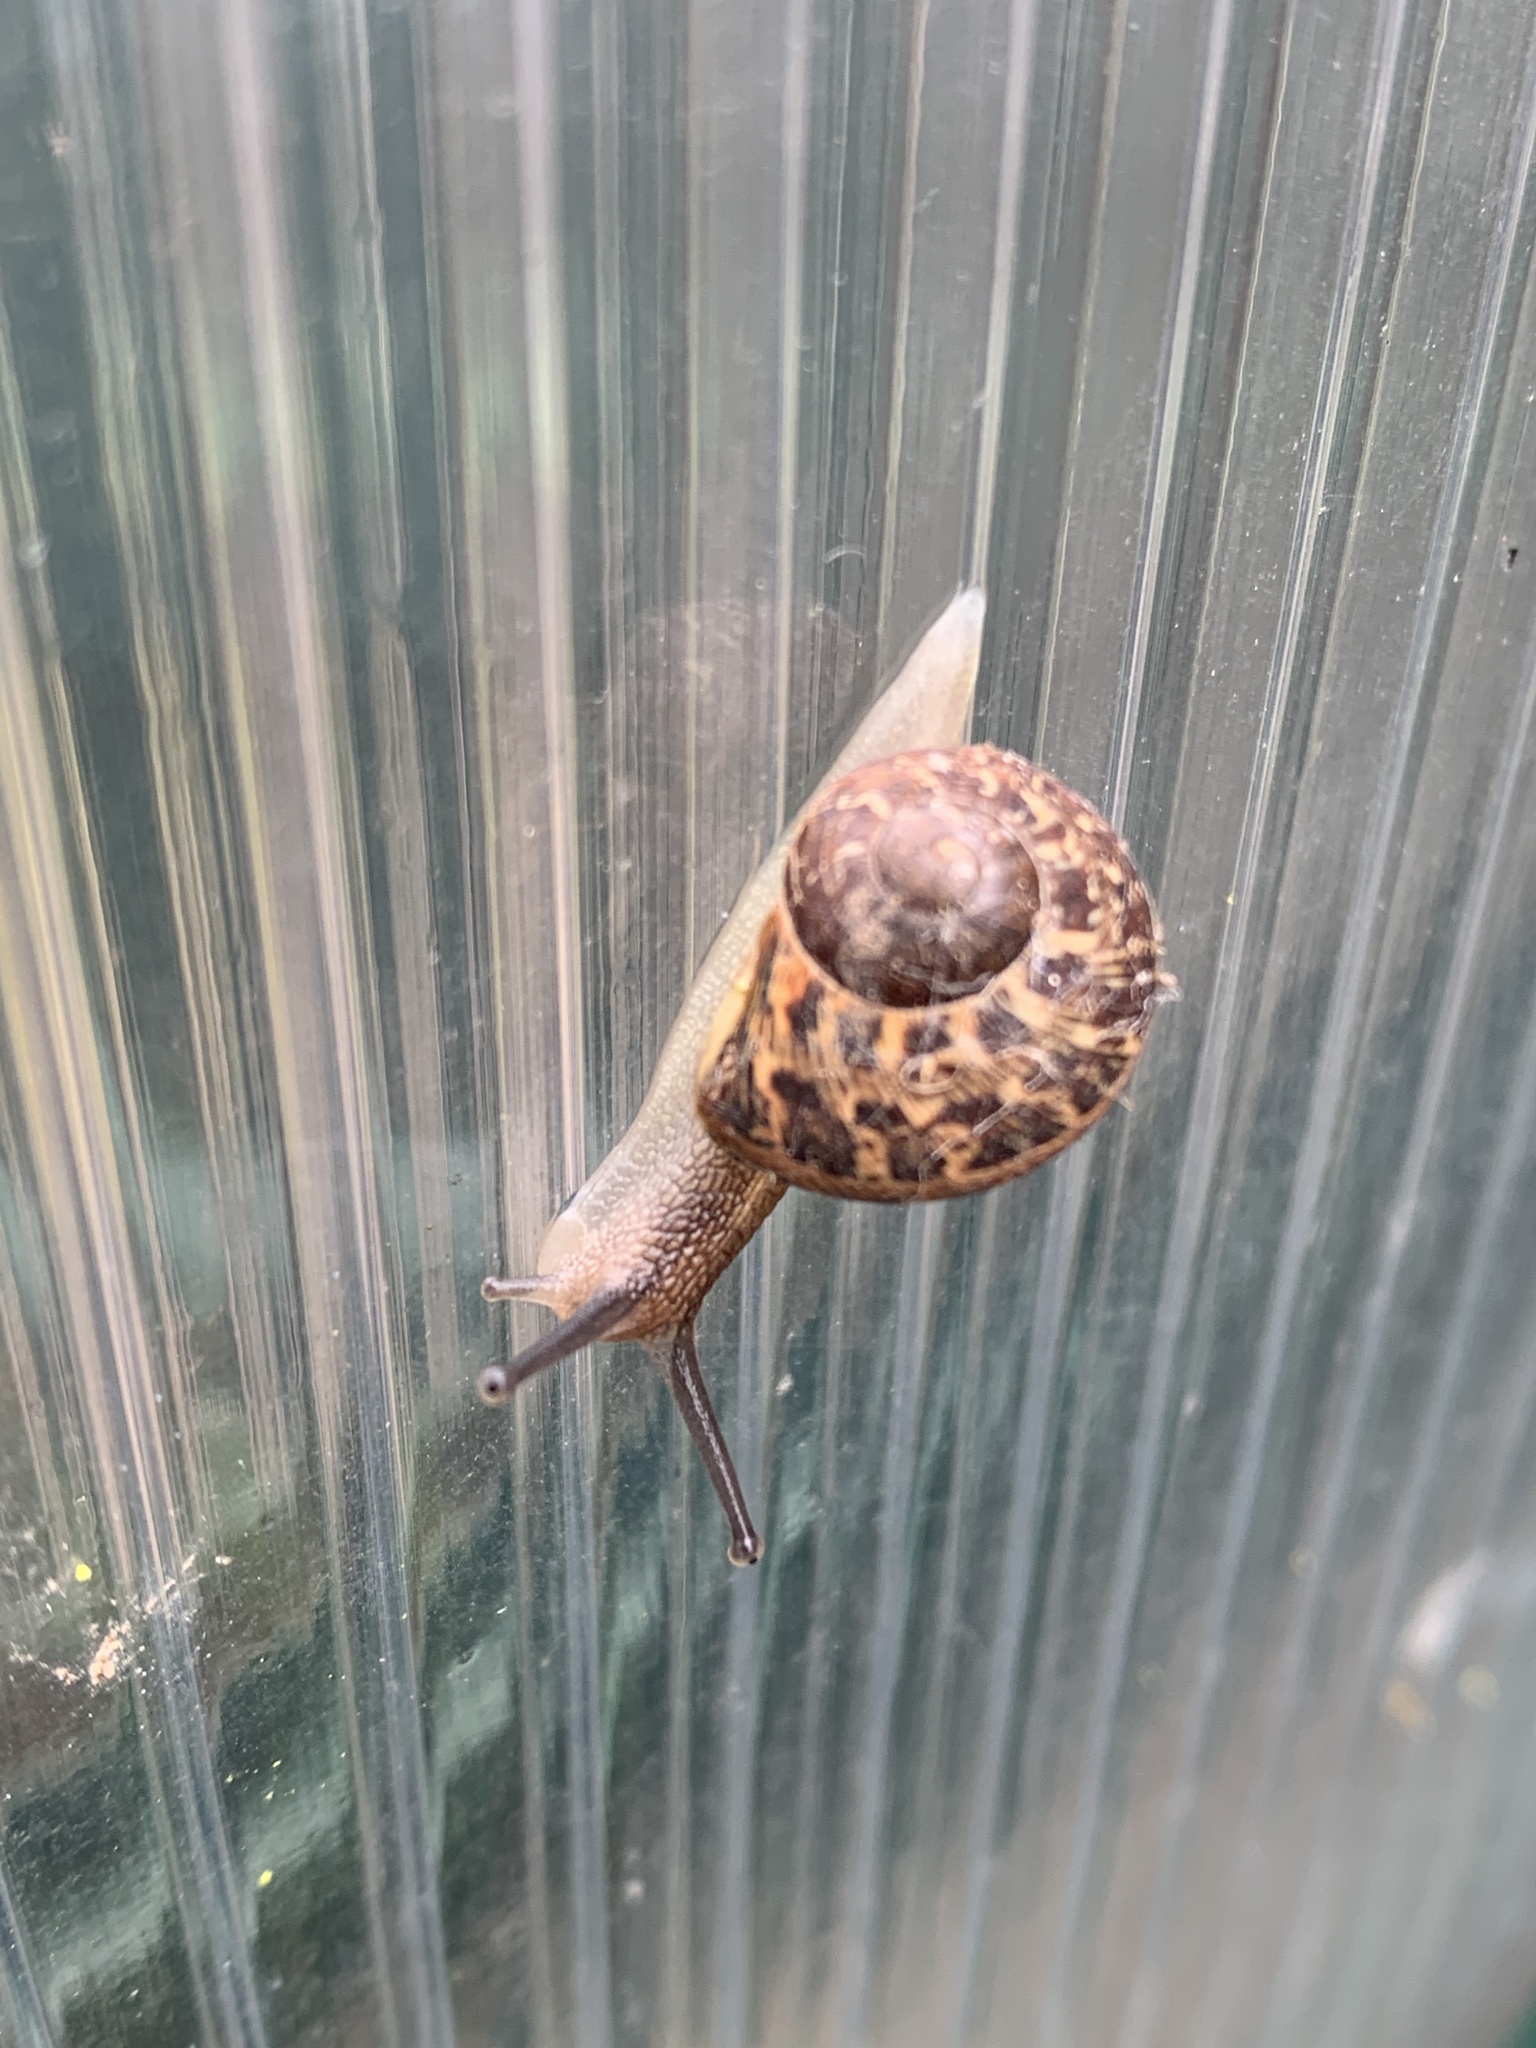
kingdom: Animalia
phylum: Mollusca
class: Gastropoda
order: Stylommatophora
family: Helicidae
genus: Cornu
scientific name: Cornu aspersum
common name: Brown garden snail
